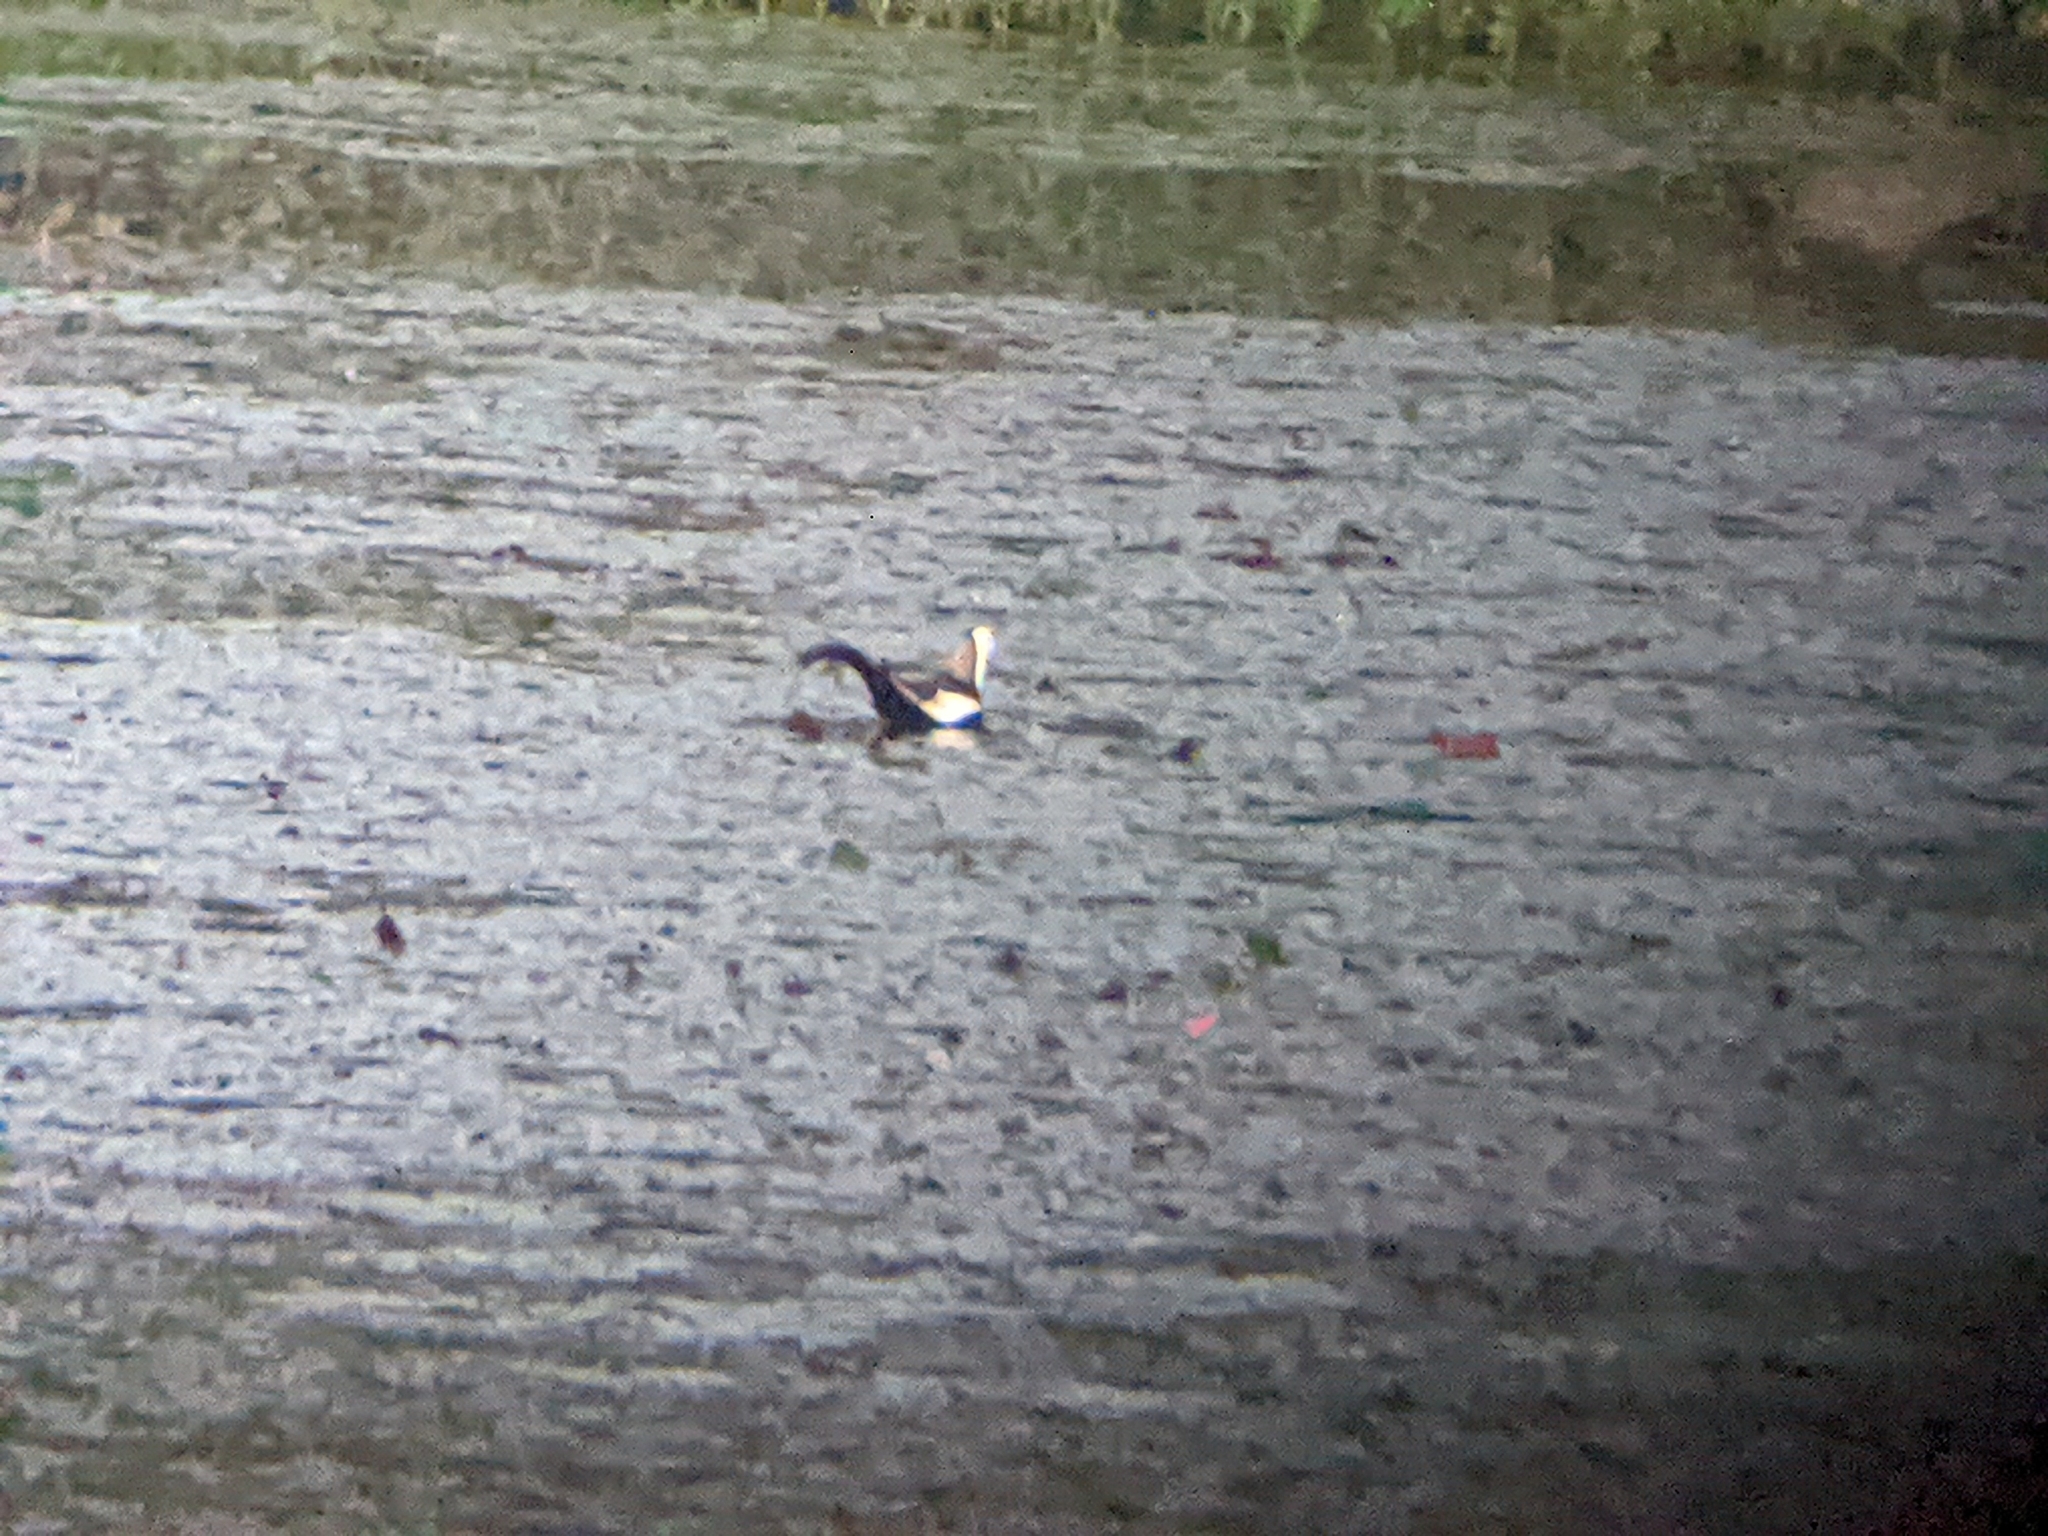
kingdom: Animalia
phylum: Chordata
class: Aves
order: Charadriiformes
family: Jacanidae
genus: Hydrophasianus
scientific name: Hydrophasianus chirurgus
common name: Pheasant-tailed jacana
